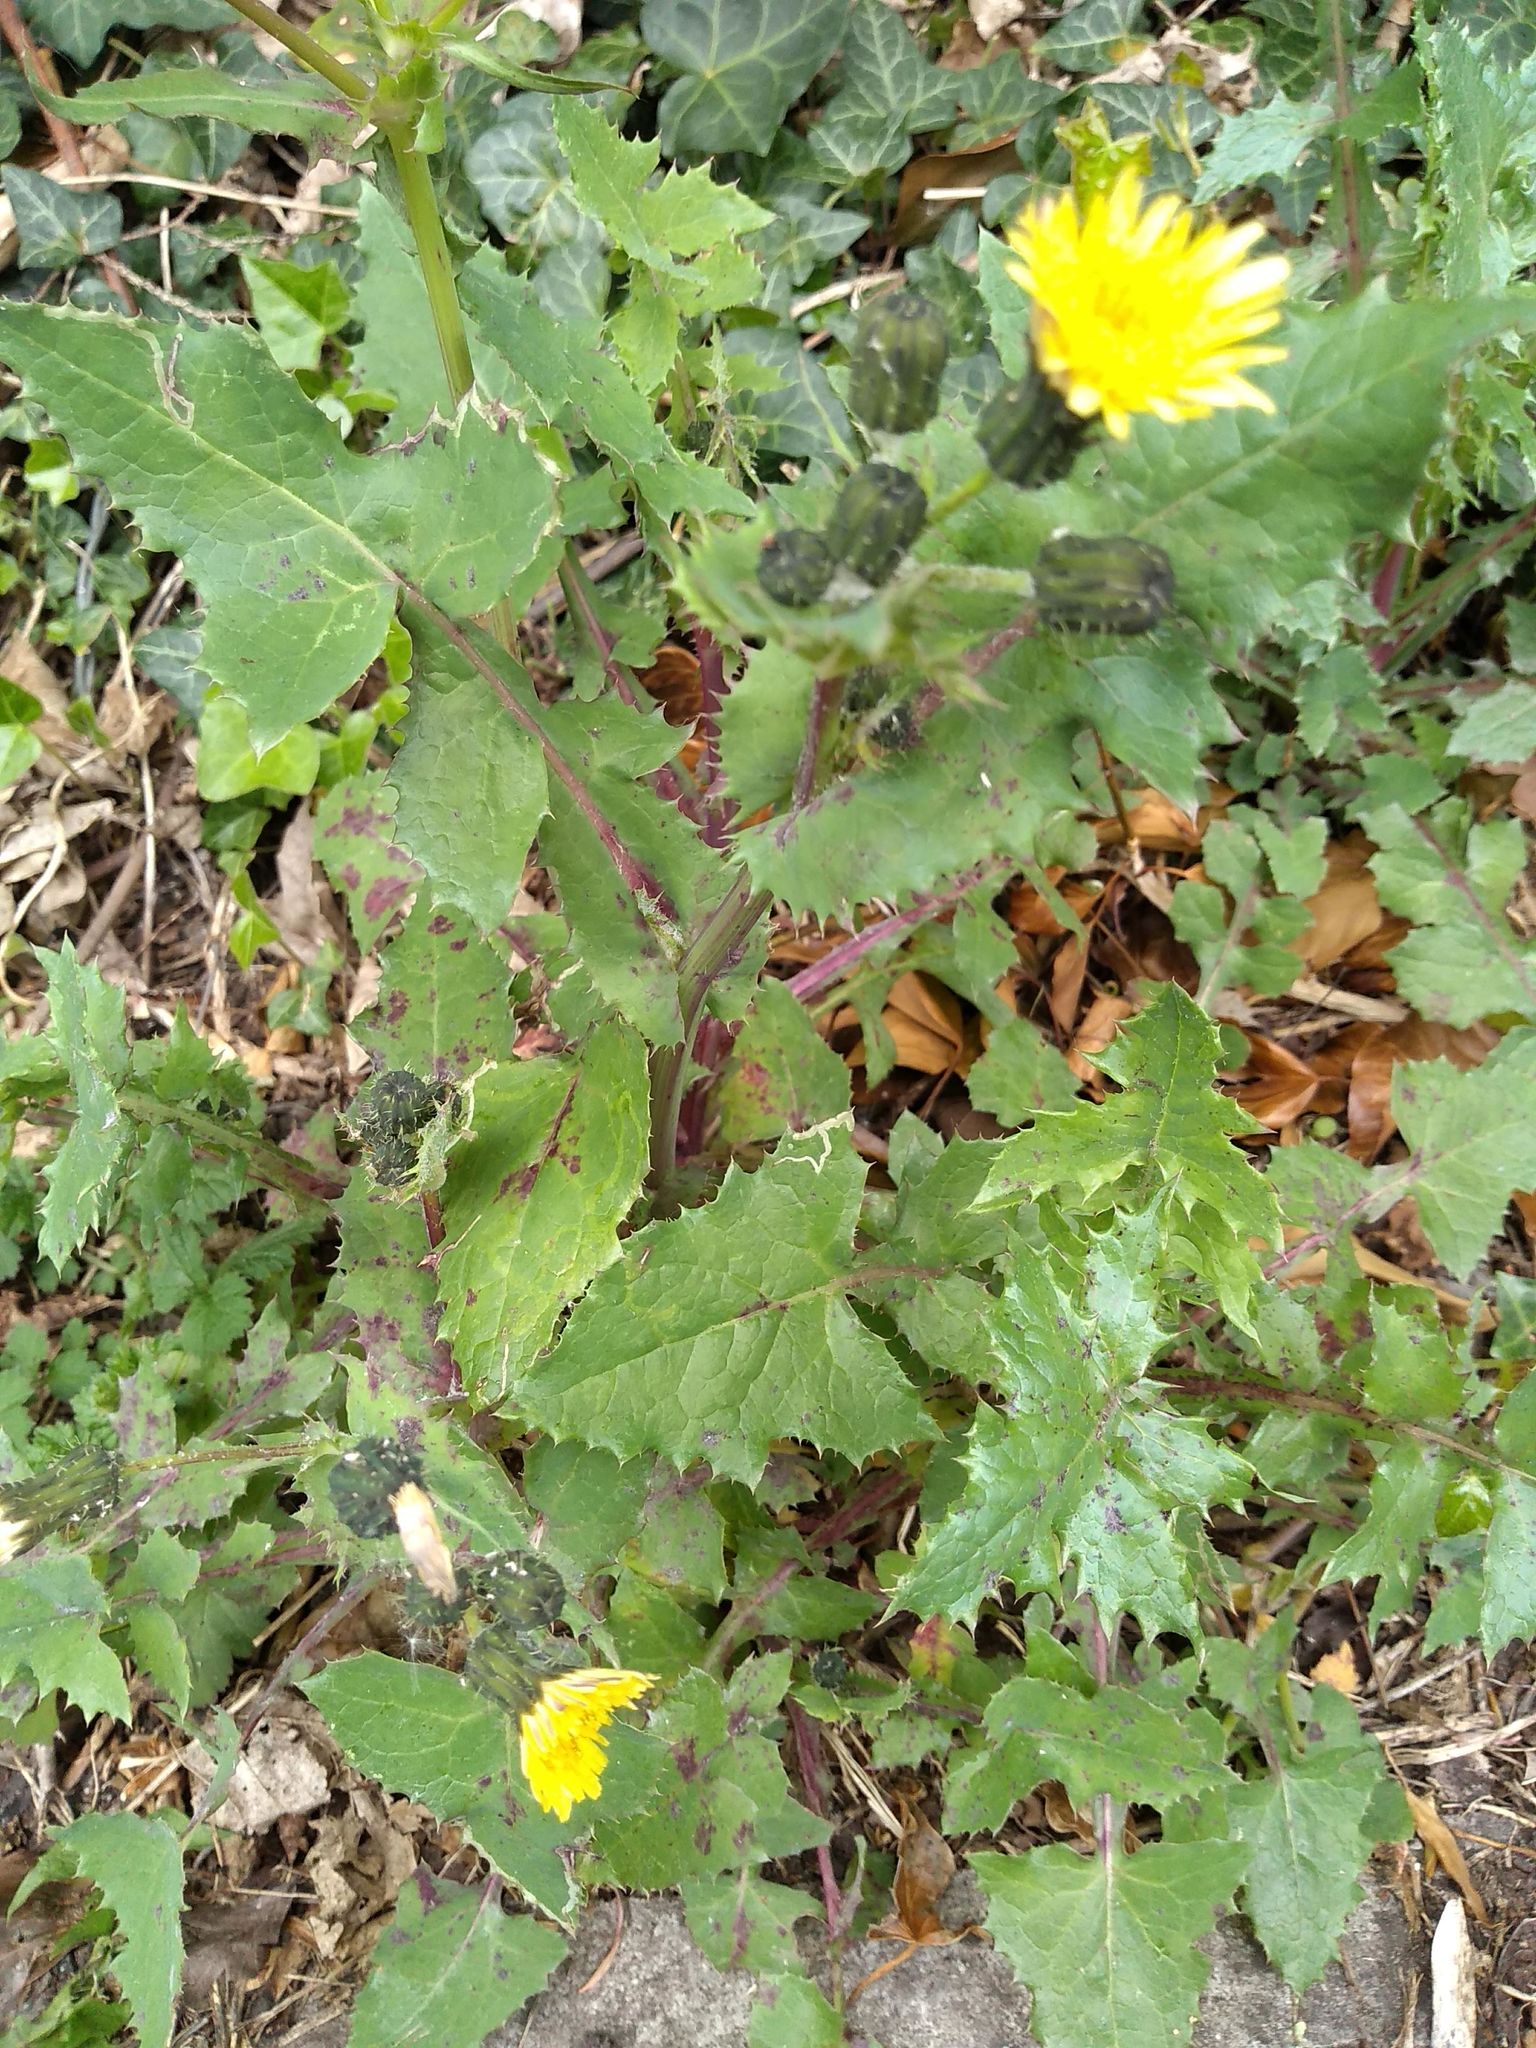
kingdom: Plantae
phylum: Tracheophyta
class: Magnoliopsida
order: Asterales
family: Asteraceae
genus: Sonchus
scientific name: Sonchus oleraceus
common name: Common sowthistle
